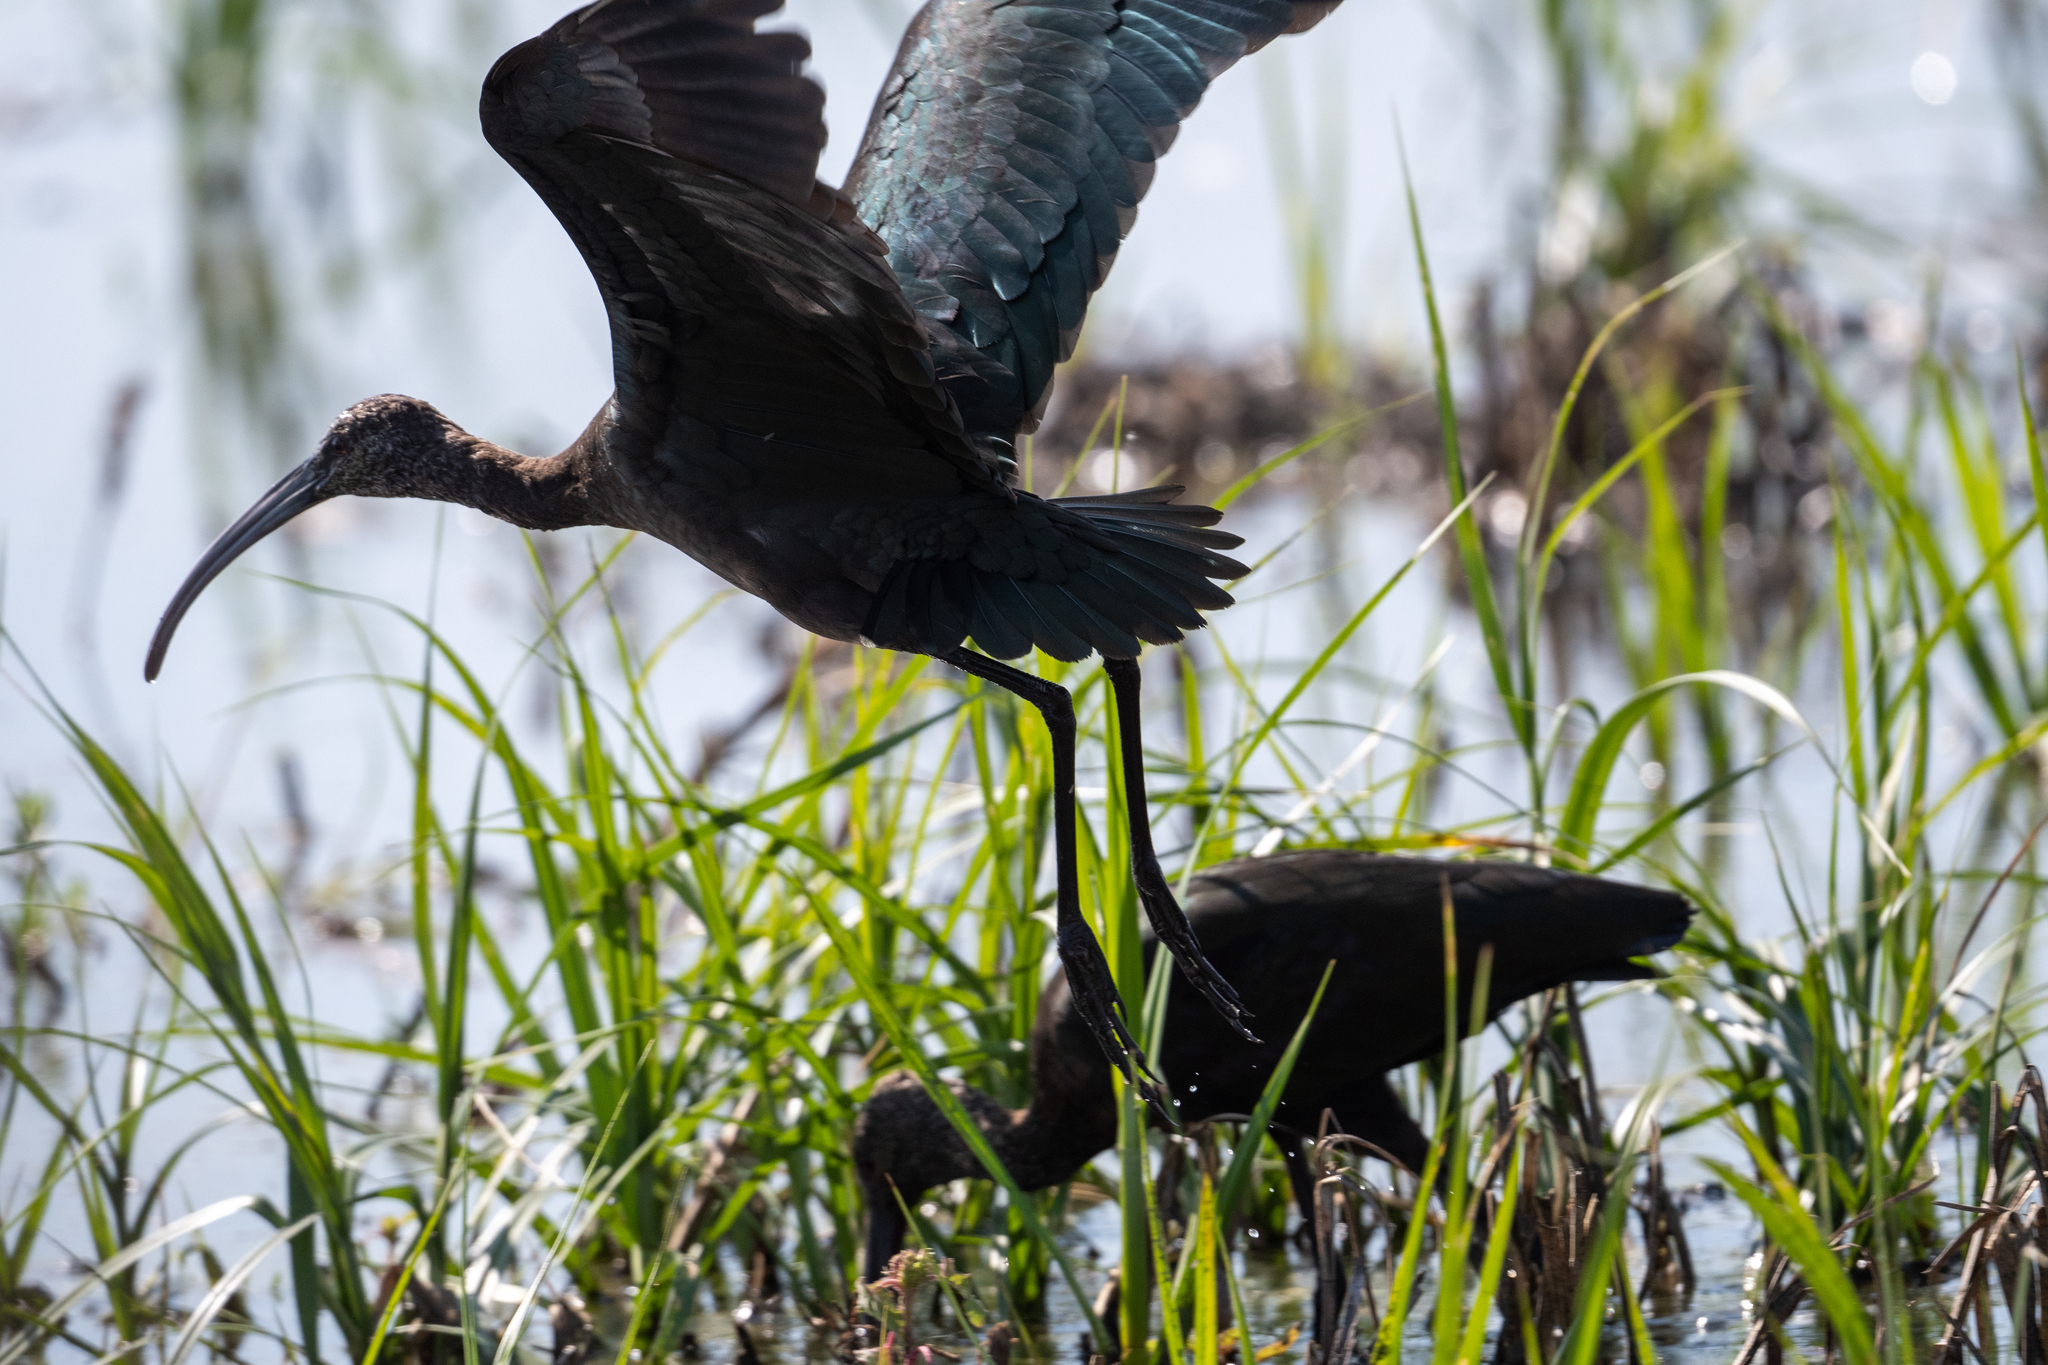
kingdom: Animalia
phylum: Chordata
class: Aves
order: Pelecaniformes
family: Threskiornithidae
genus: Plegadis
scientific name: Plegadis chihi
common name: White-faced ibis
